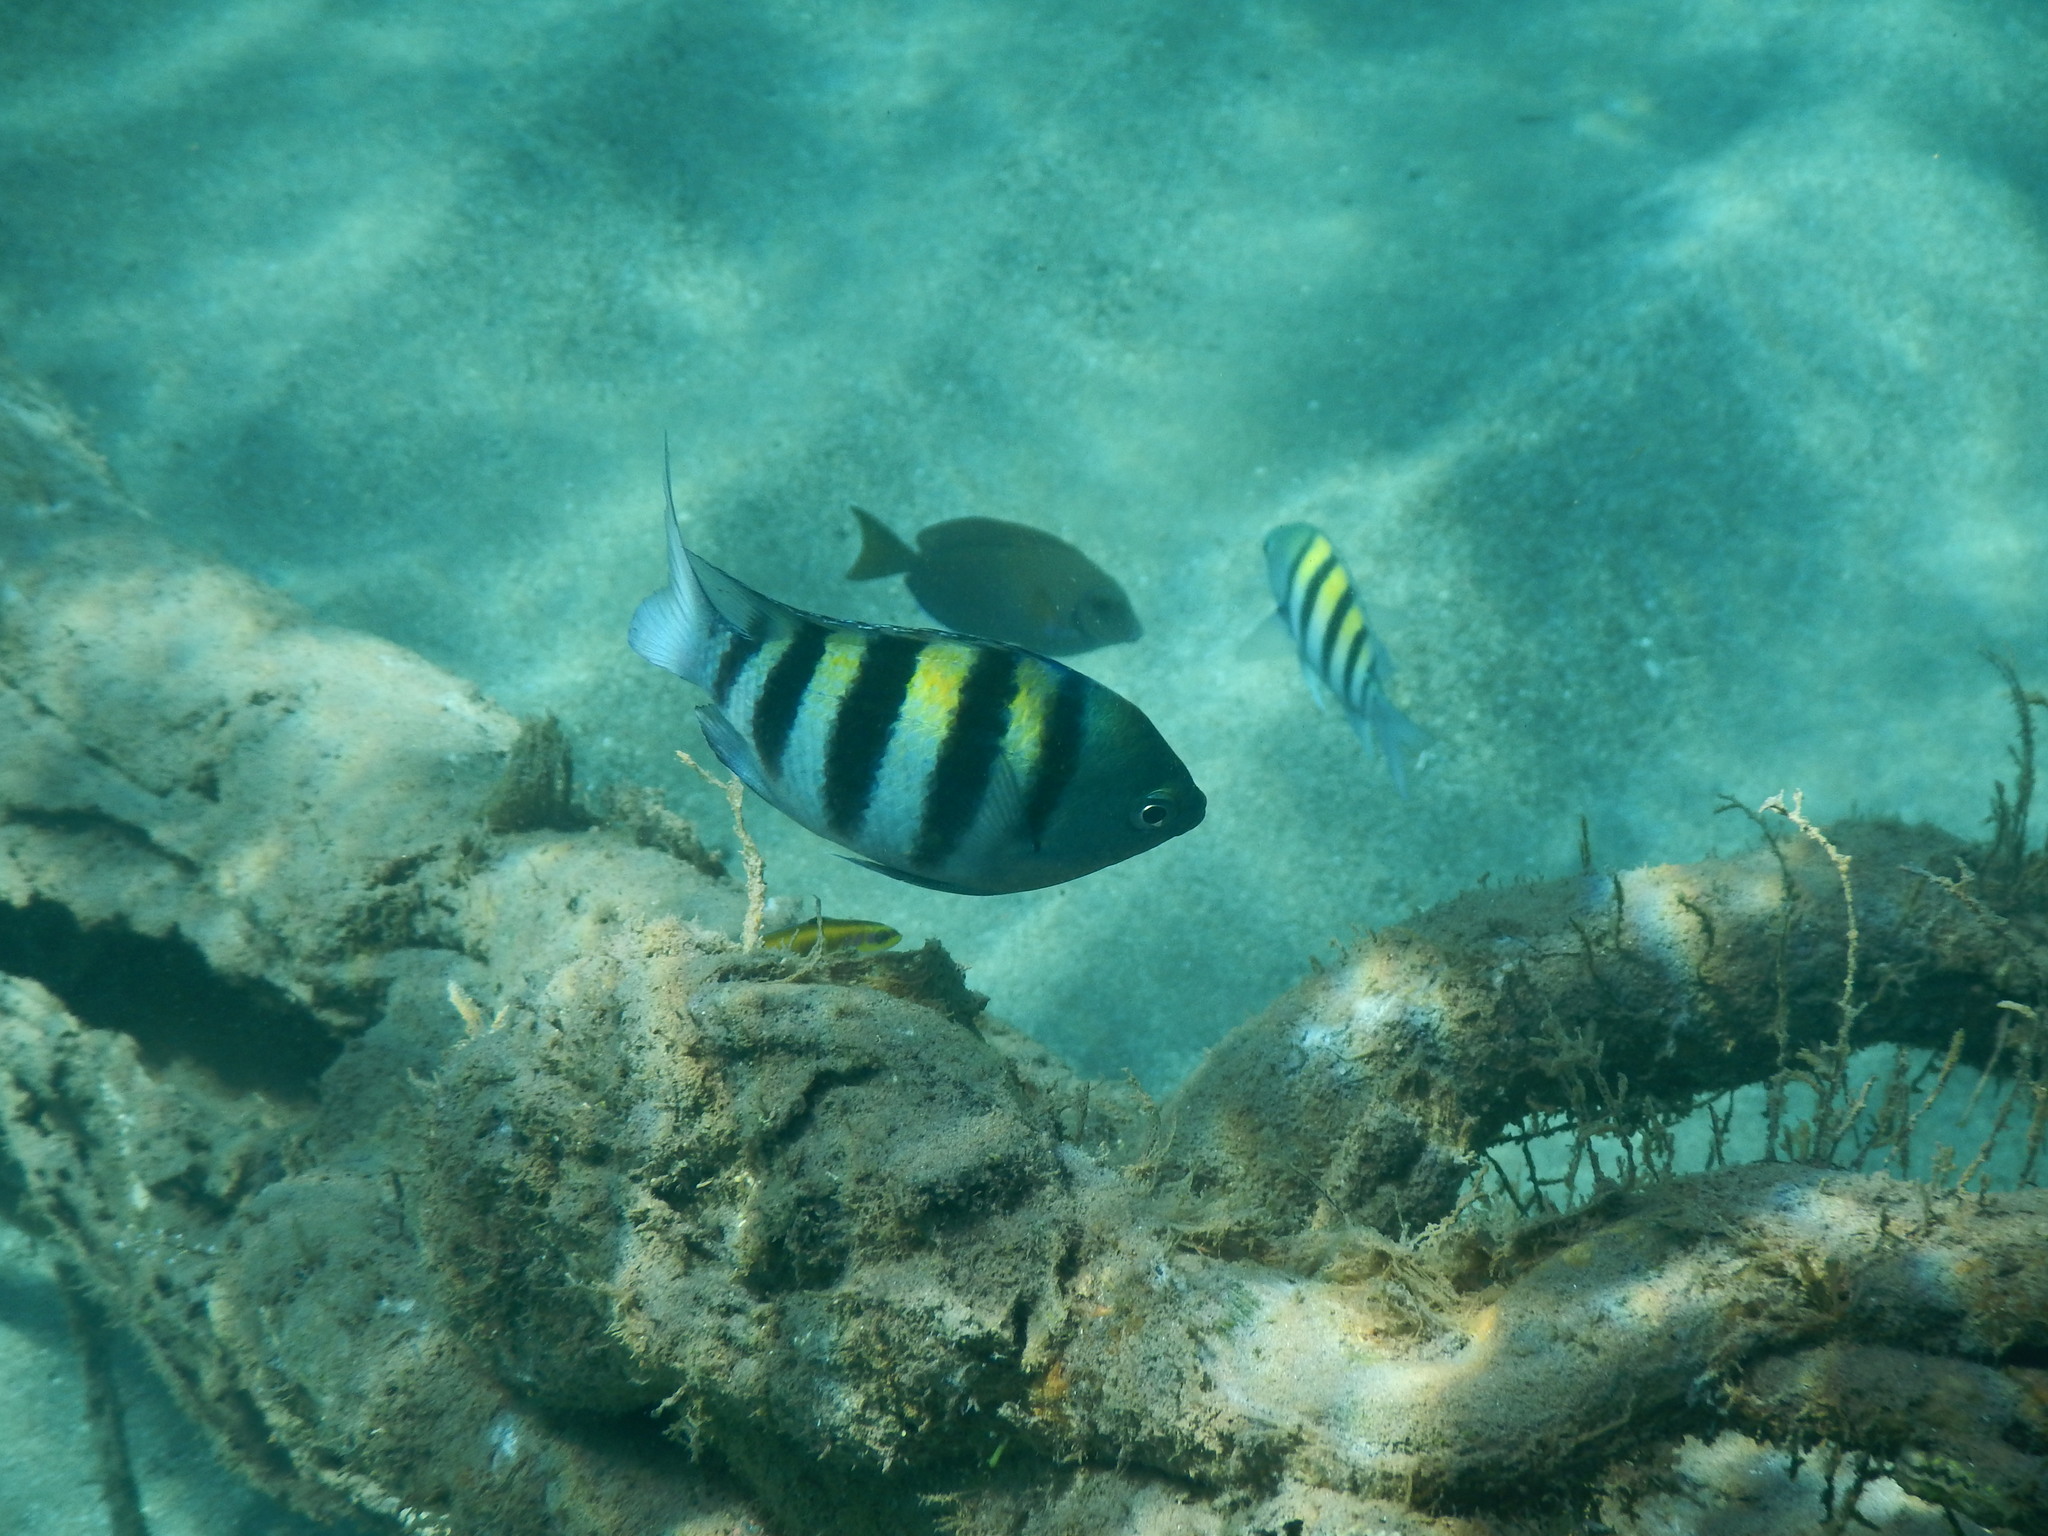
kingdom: Animalia
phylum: Chordata
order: Perciformes
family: Pomacentridae
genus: Abudefduf
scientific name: Abudefduf saxatilis
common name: Sergeant major
